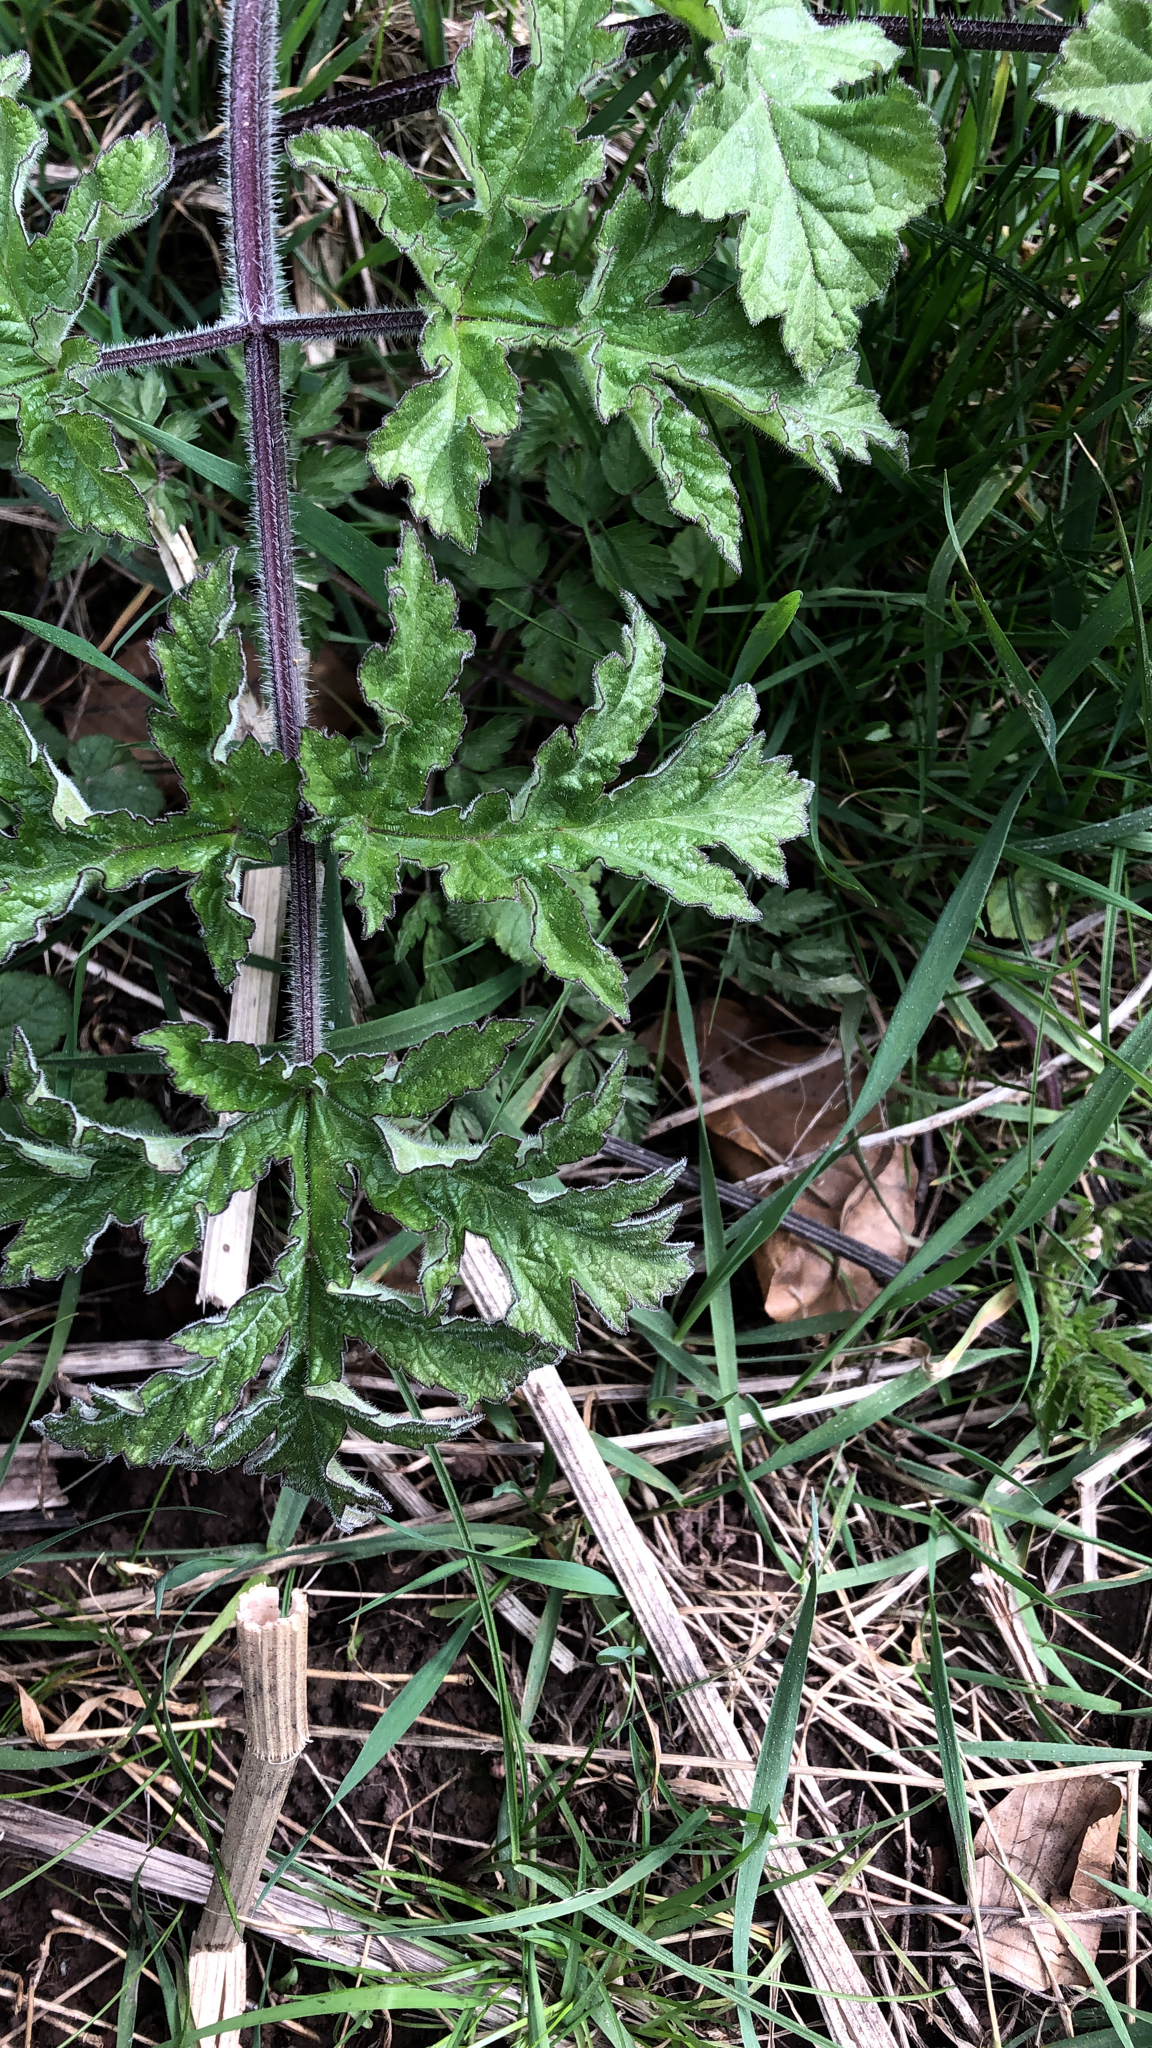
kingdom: Plantae
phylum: Tracheophyta
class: Magnoliopsida
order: Apiales
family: Apiaceae
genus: Heracleum
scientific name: Heracleum sphondylium
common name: Hogweed
